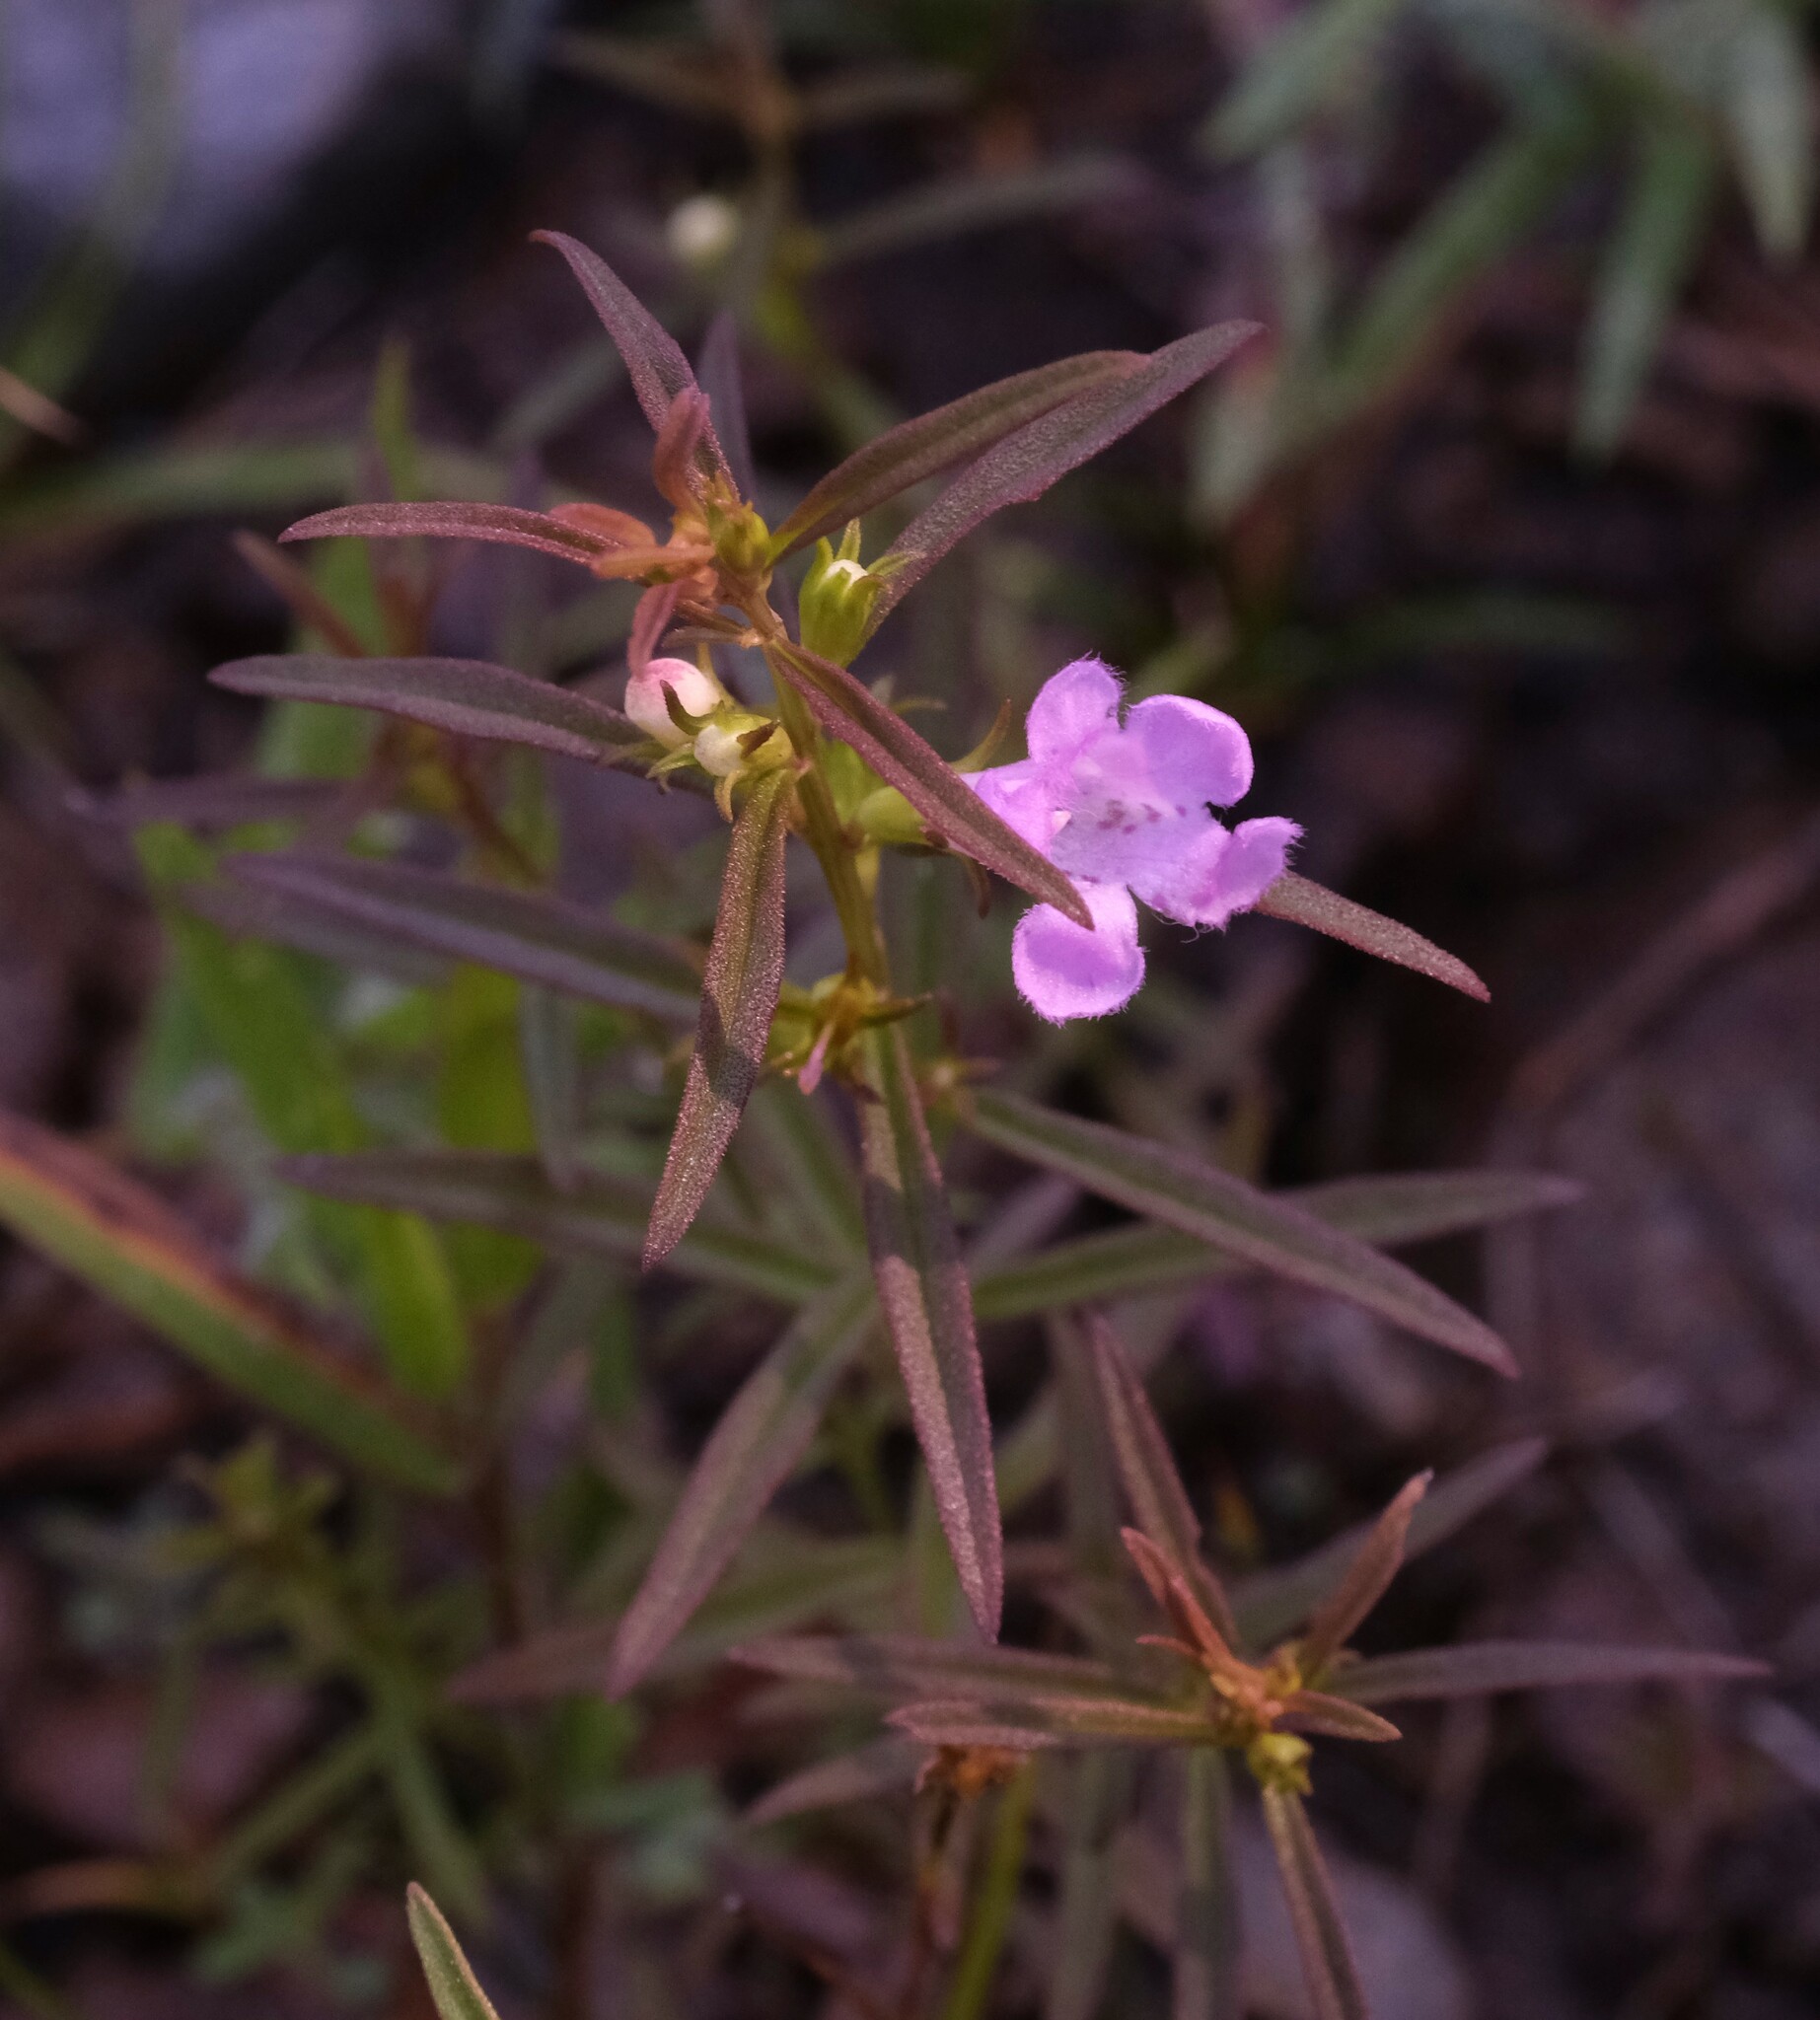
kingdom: Plantae
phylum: Tracheophyta
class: Magnoliopsida
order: Lamiales
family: Orobanchaceae
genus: Agalinis
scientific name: Agalinis neoscotica
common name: Middleton false foxglove
